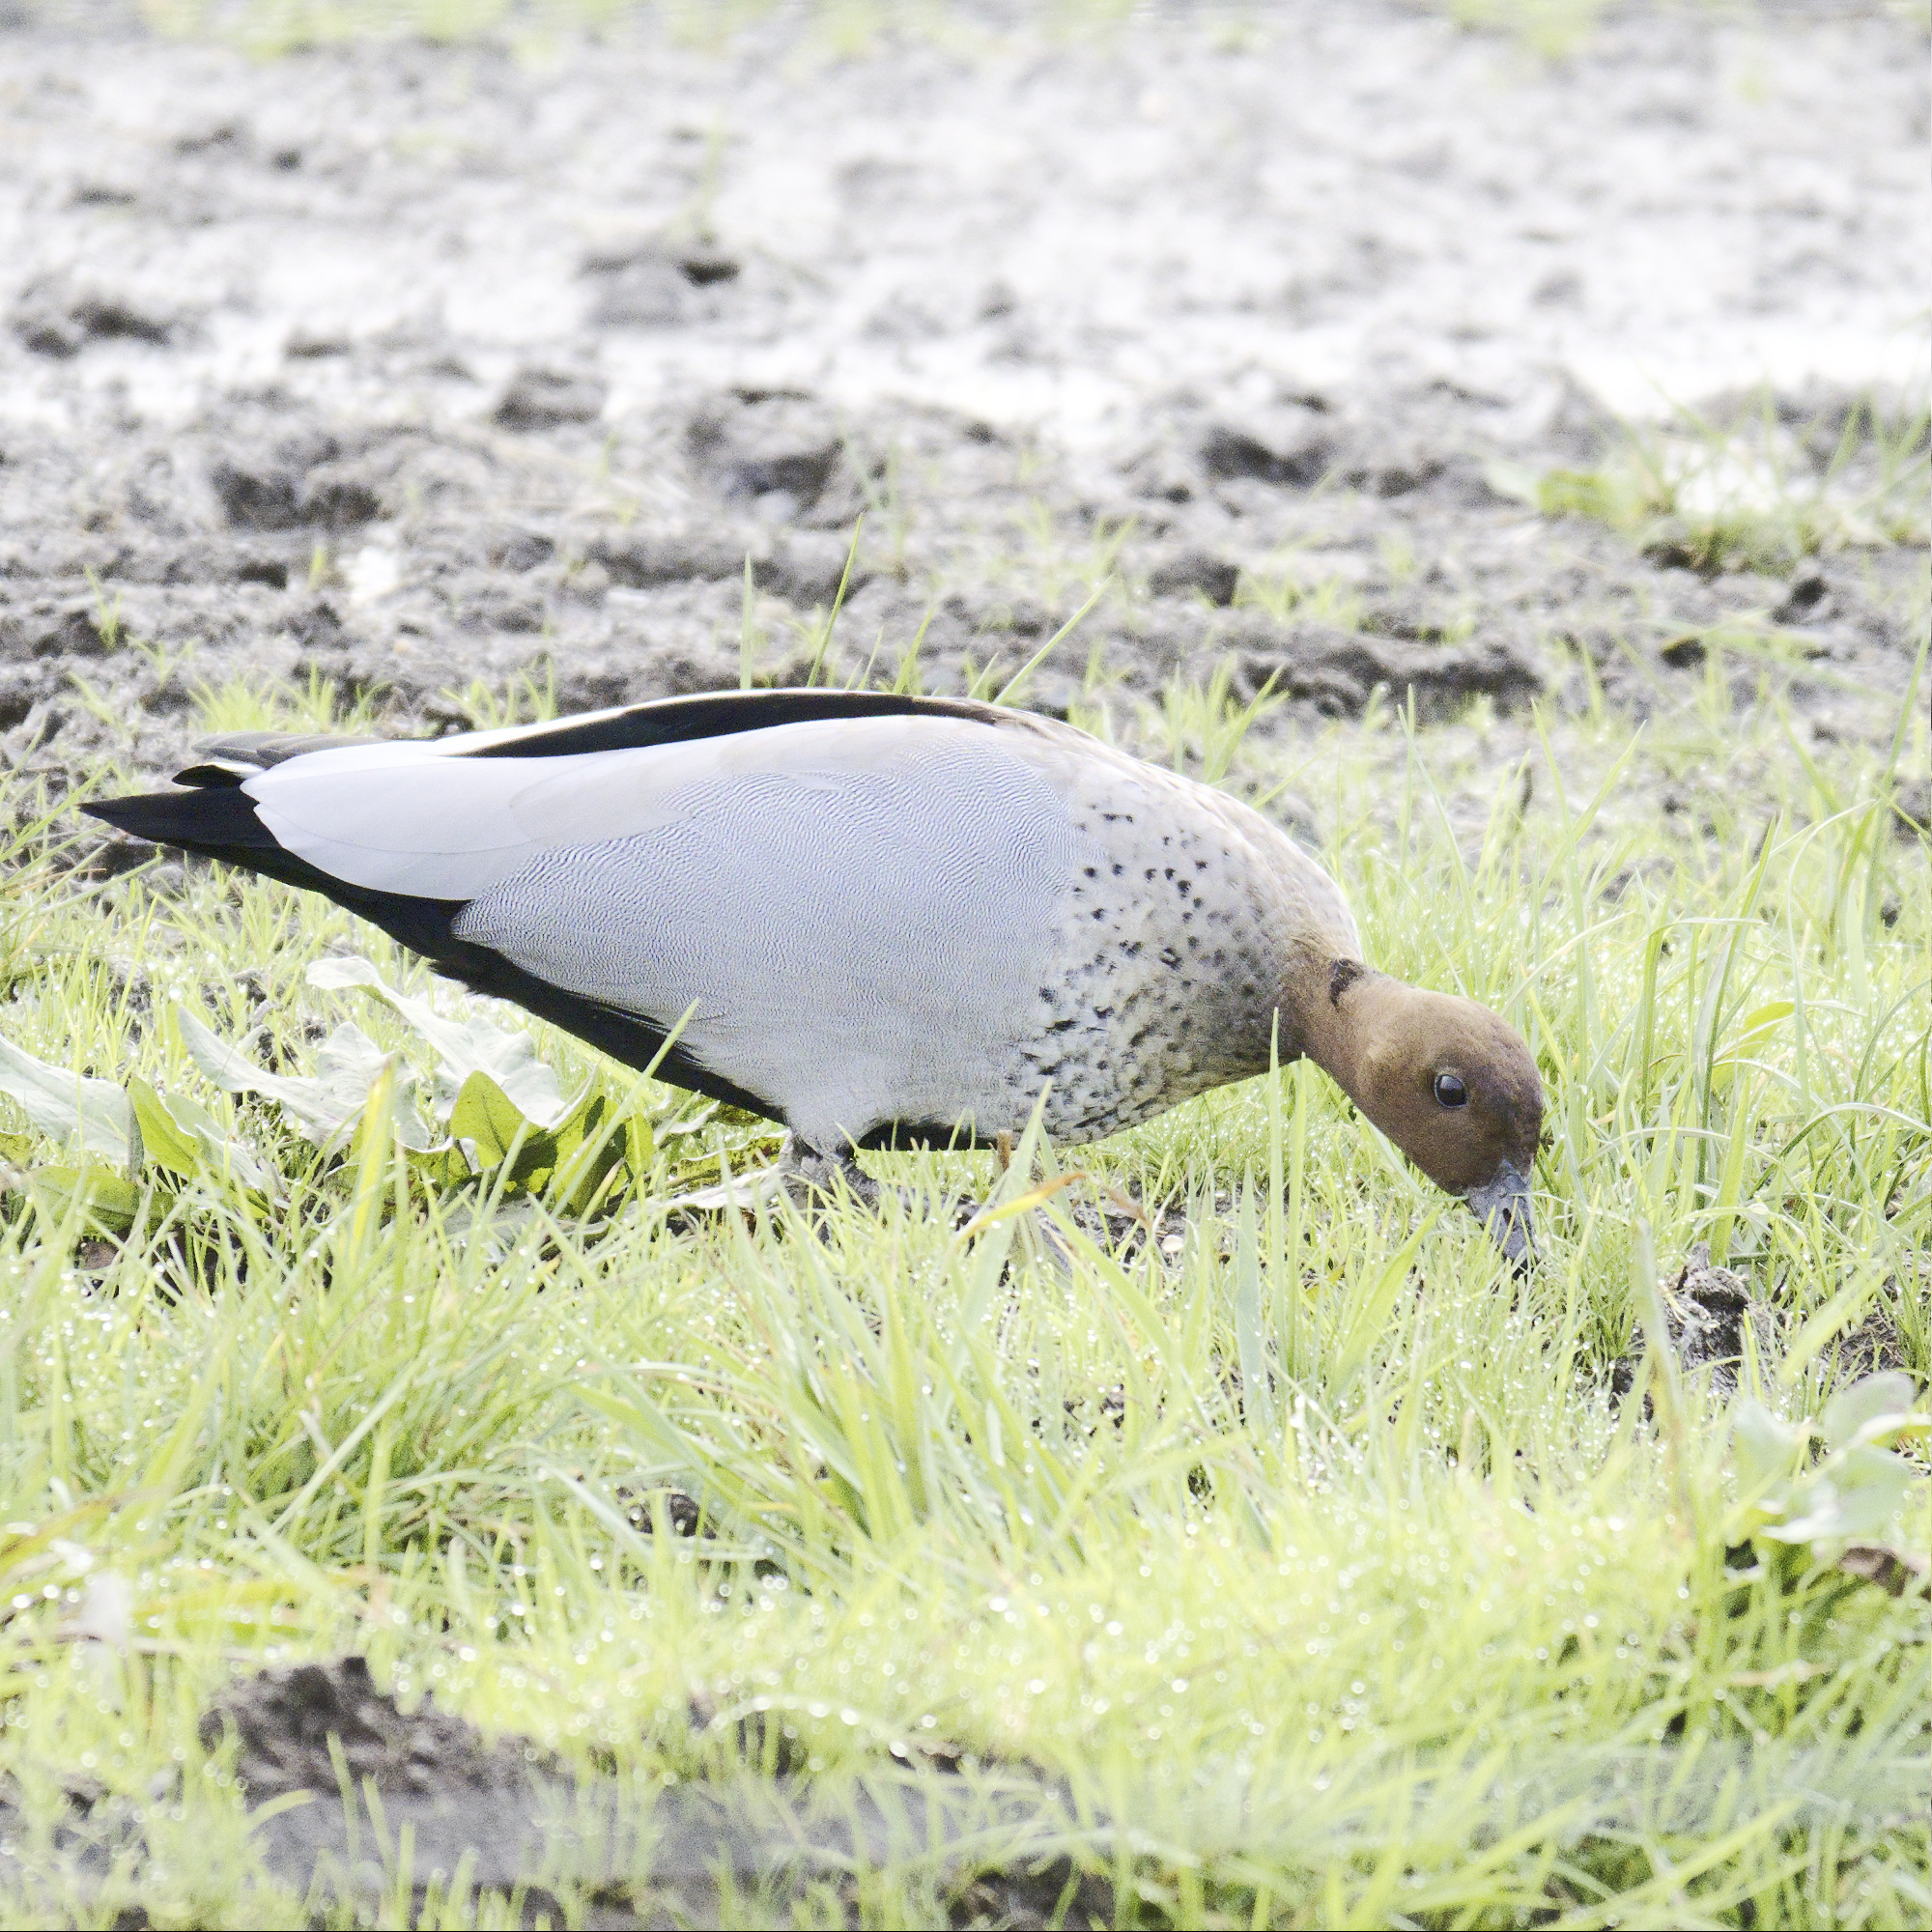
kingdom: Animalia
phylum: Chordata
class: Aves
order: Anseriformes
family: Anatidae
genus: Chenonetta
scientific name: Chenonetta jubata
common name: Maned duck
